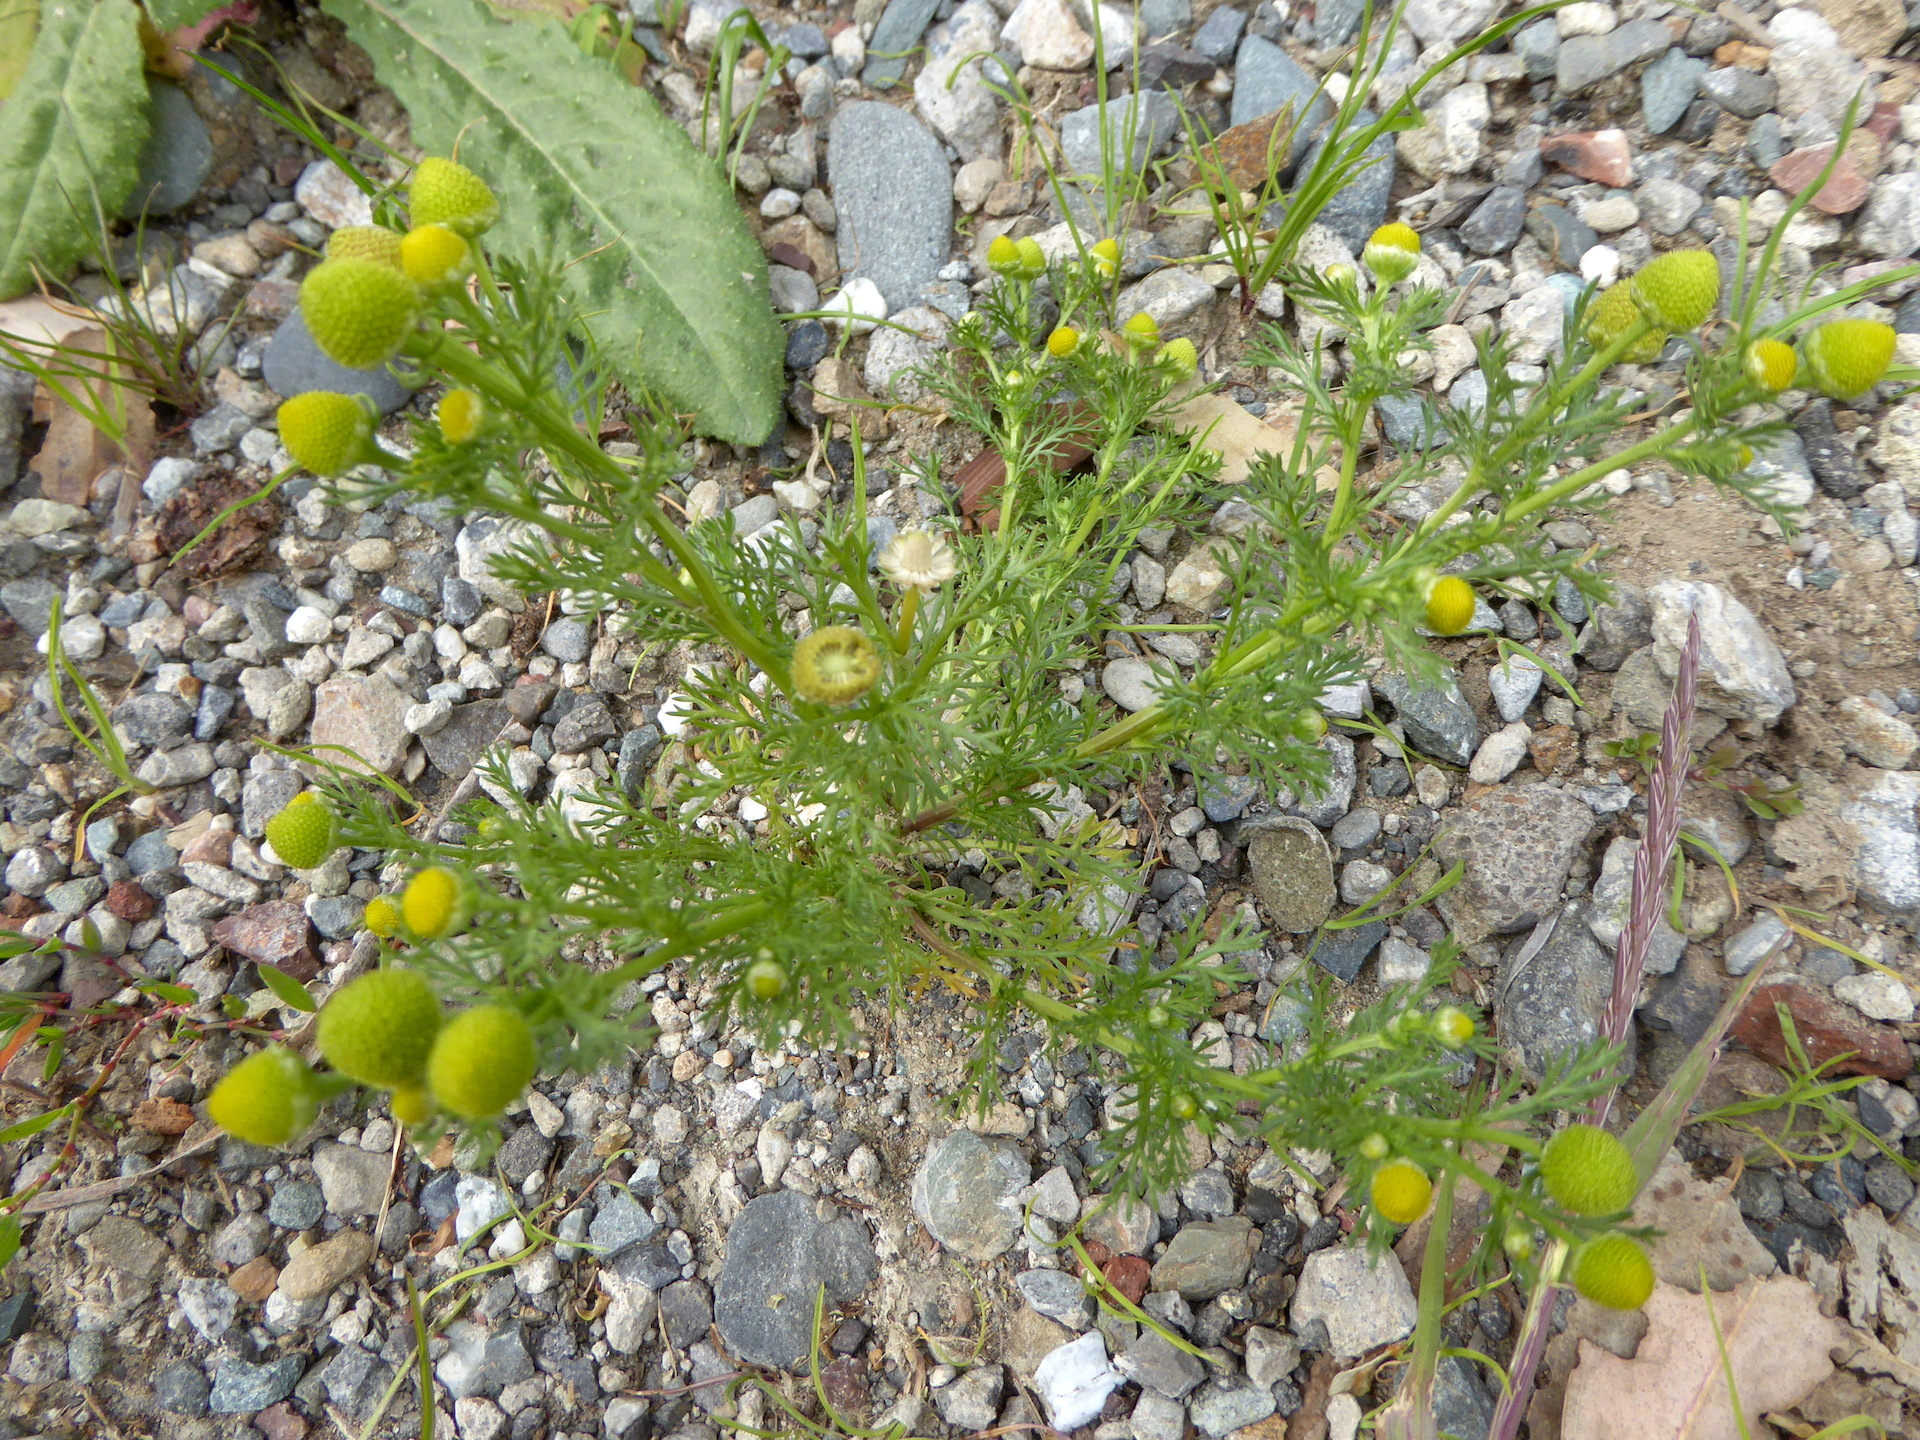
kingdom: Plantae
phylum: Tracheophyta
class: Magnoliopsida
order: Asterales
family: Asteraceae
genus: Matricaria
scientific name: Matricaria discoidea
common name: Disc mayweed
